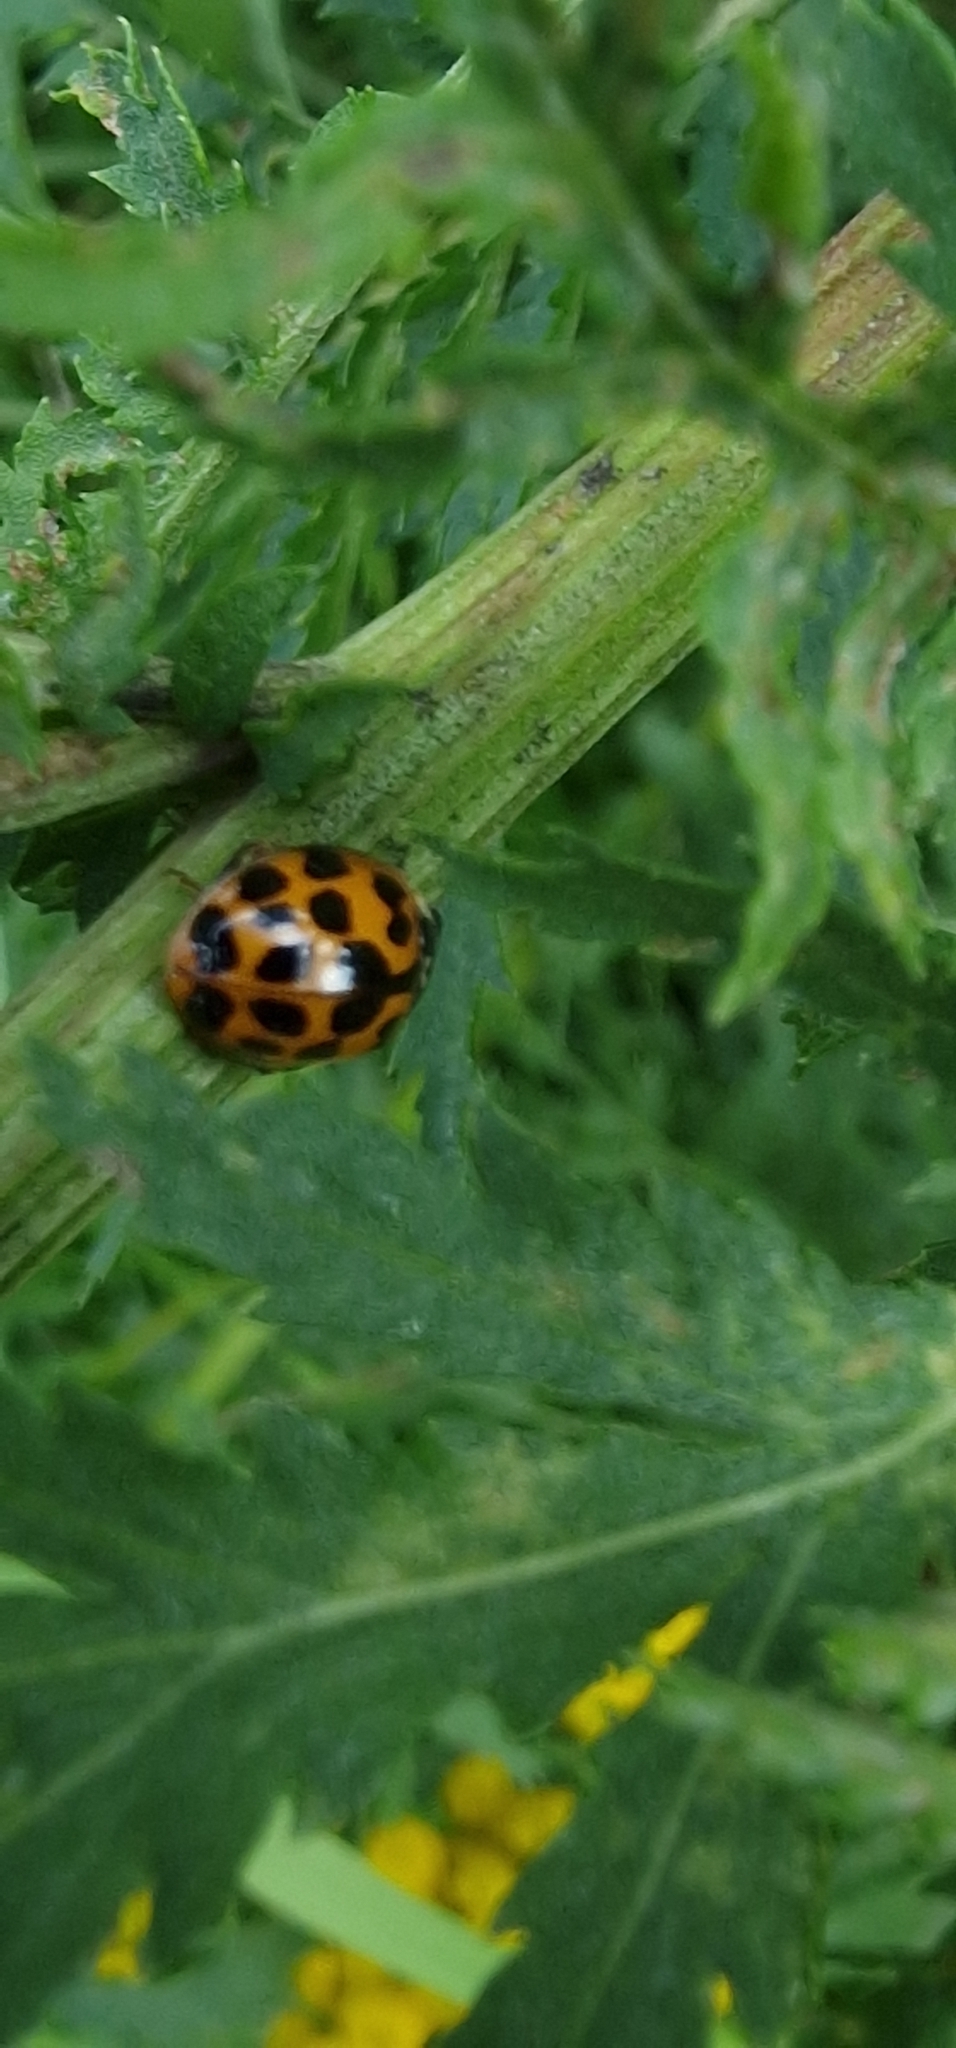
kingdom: Animalia
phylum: Arthropoda
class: Insecta
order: Coleoptera
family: Coccinellidae
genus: Harmonia
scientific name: Harmonia axyridis
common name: Harlequin ladybird
